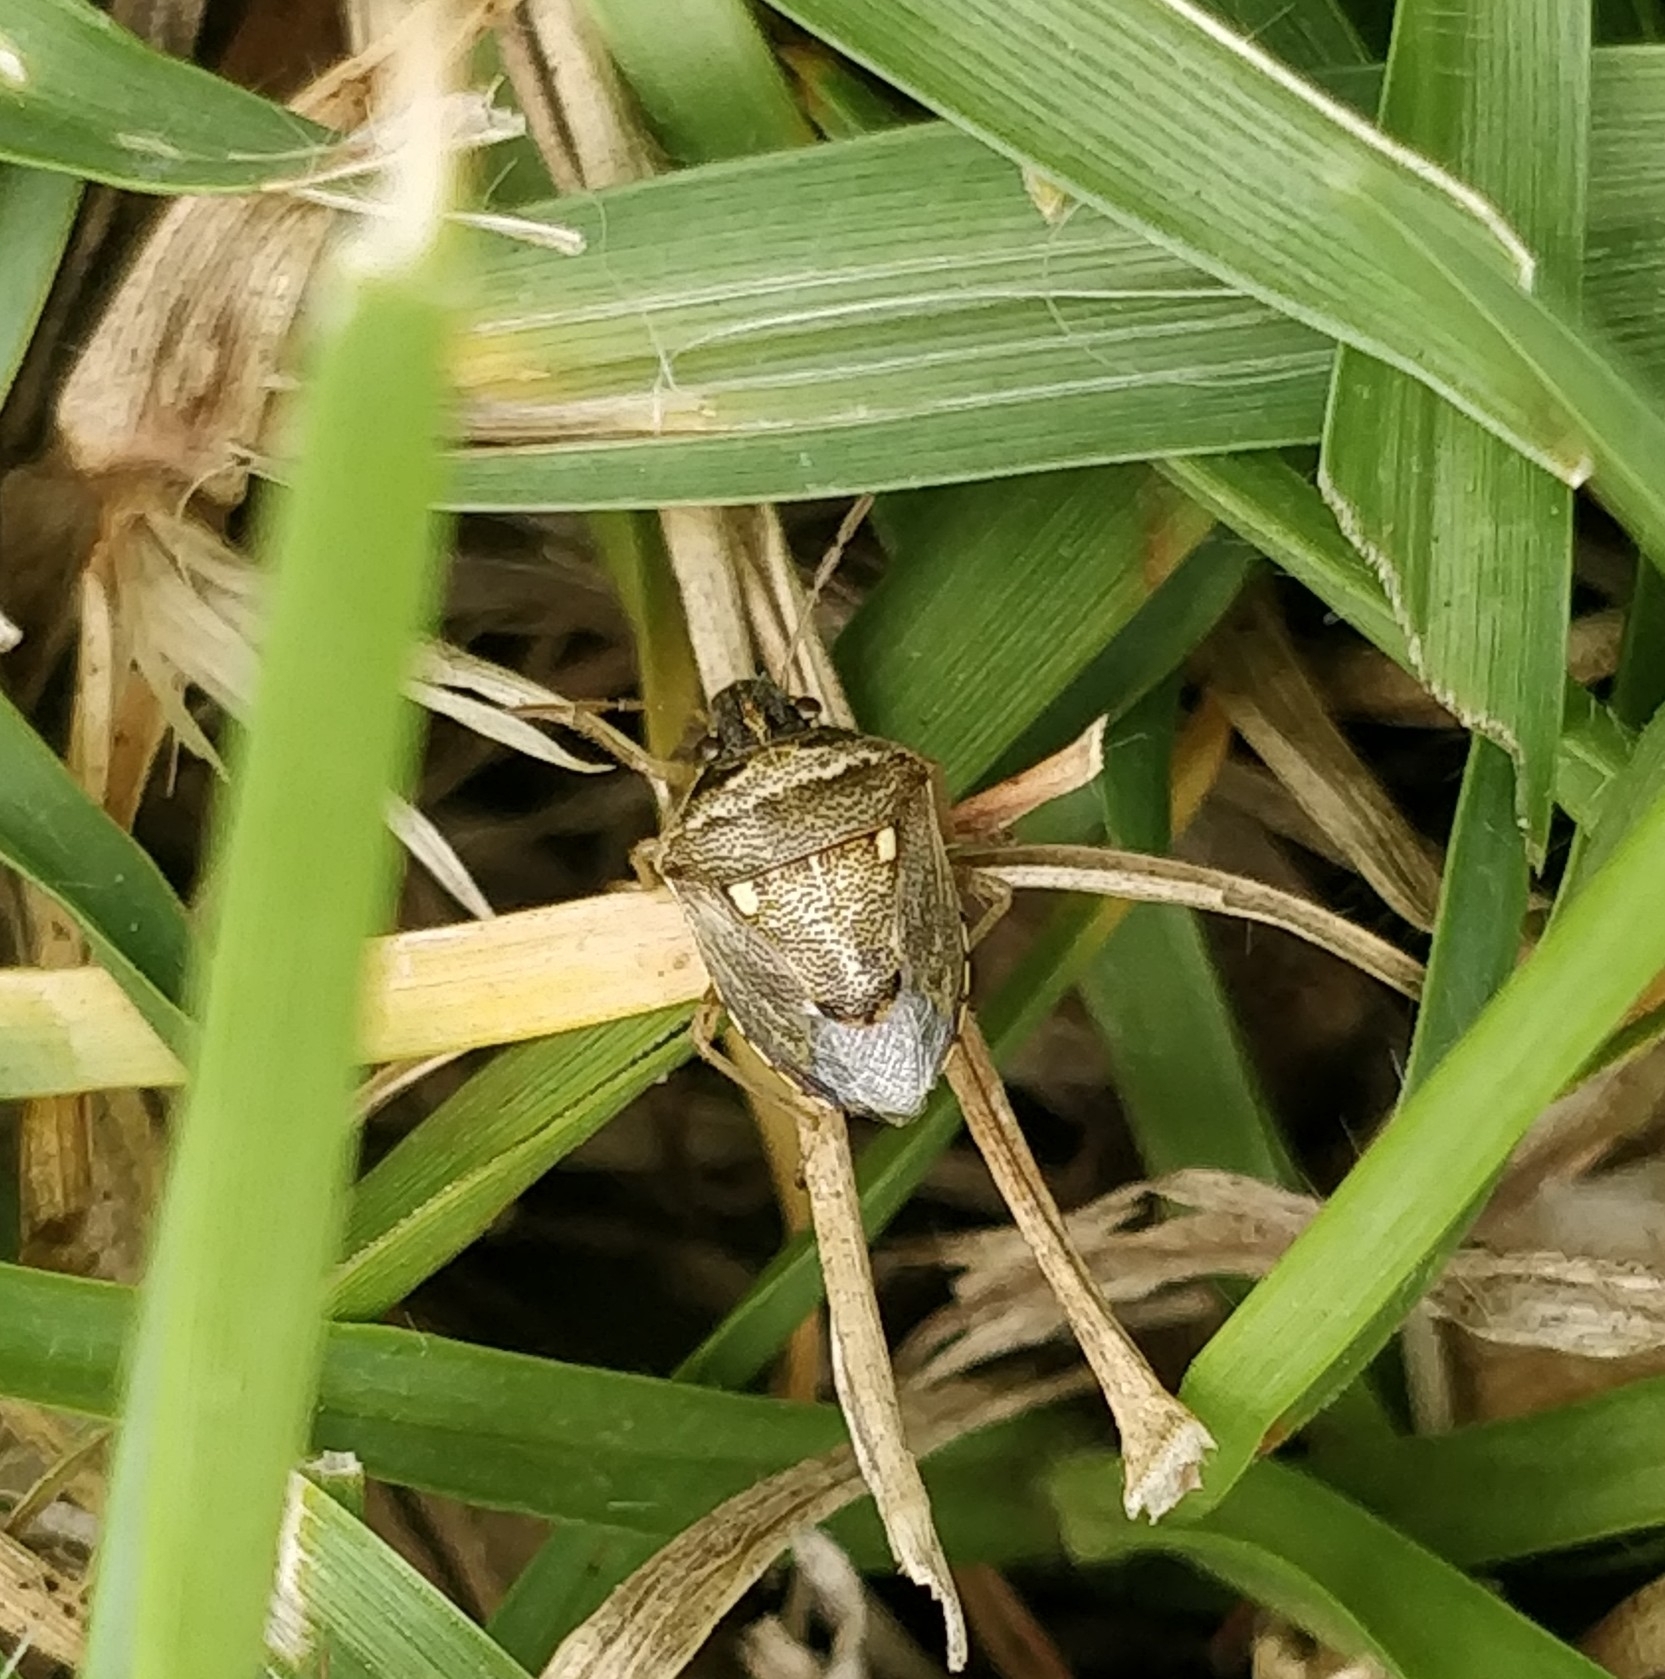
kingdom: Animalia
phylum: Arthropoda
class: Insecta
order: Hemiptera
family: Pentatomidae
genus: Eysarcoris
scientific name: Eysarcoris ventralis
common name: White-spotted stink bug
